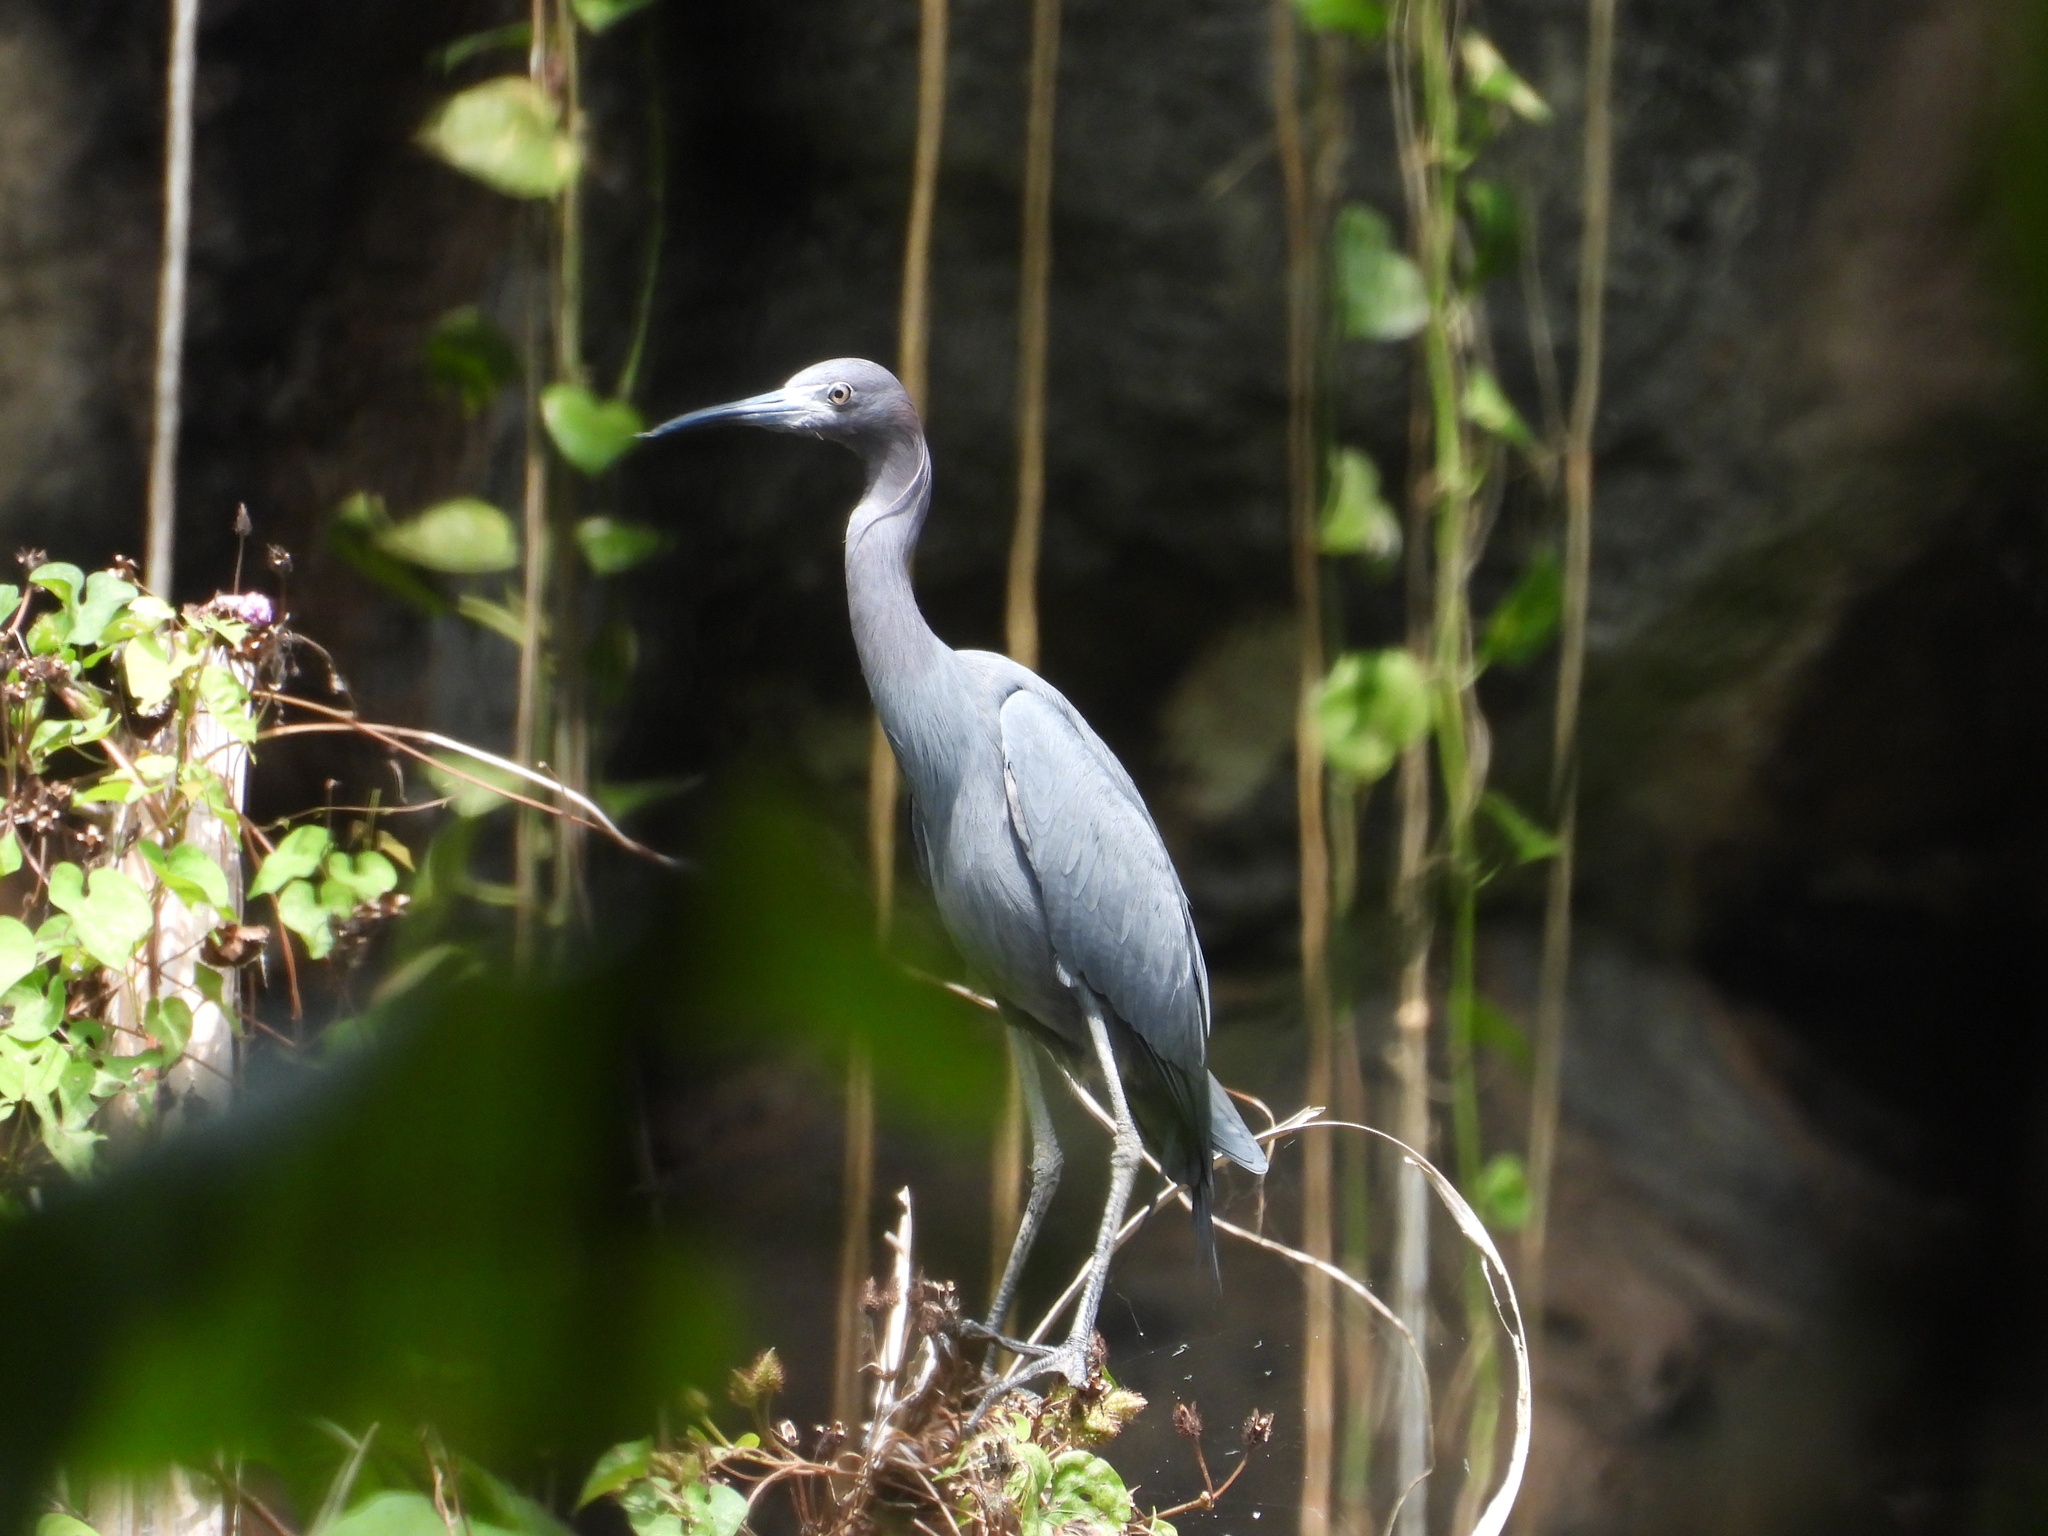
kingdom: Animalia
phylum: Chordata
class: Aves
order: Pelecaniformes
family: Ardeidae
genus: Egretta
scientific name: Egretta caerulea
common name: Little blue heron
